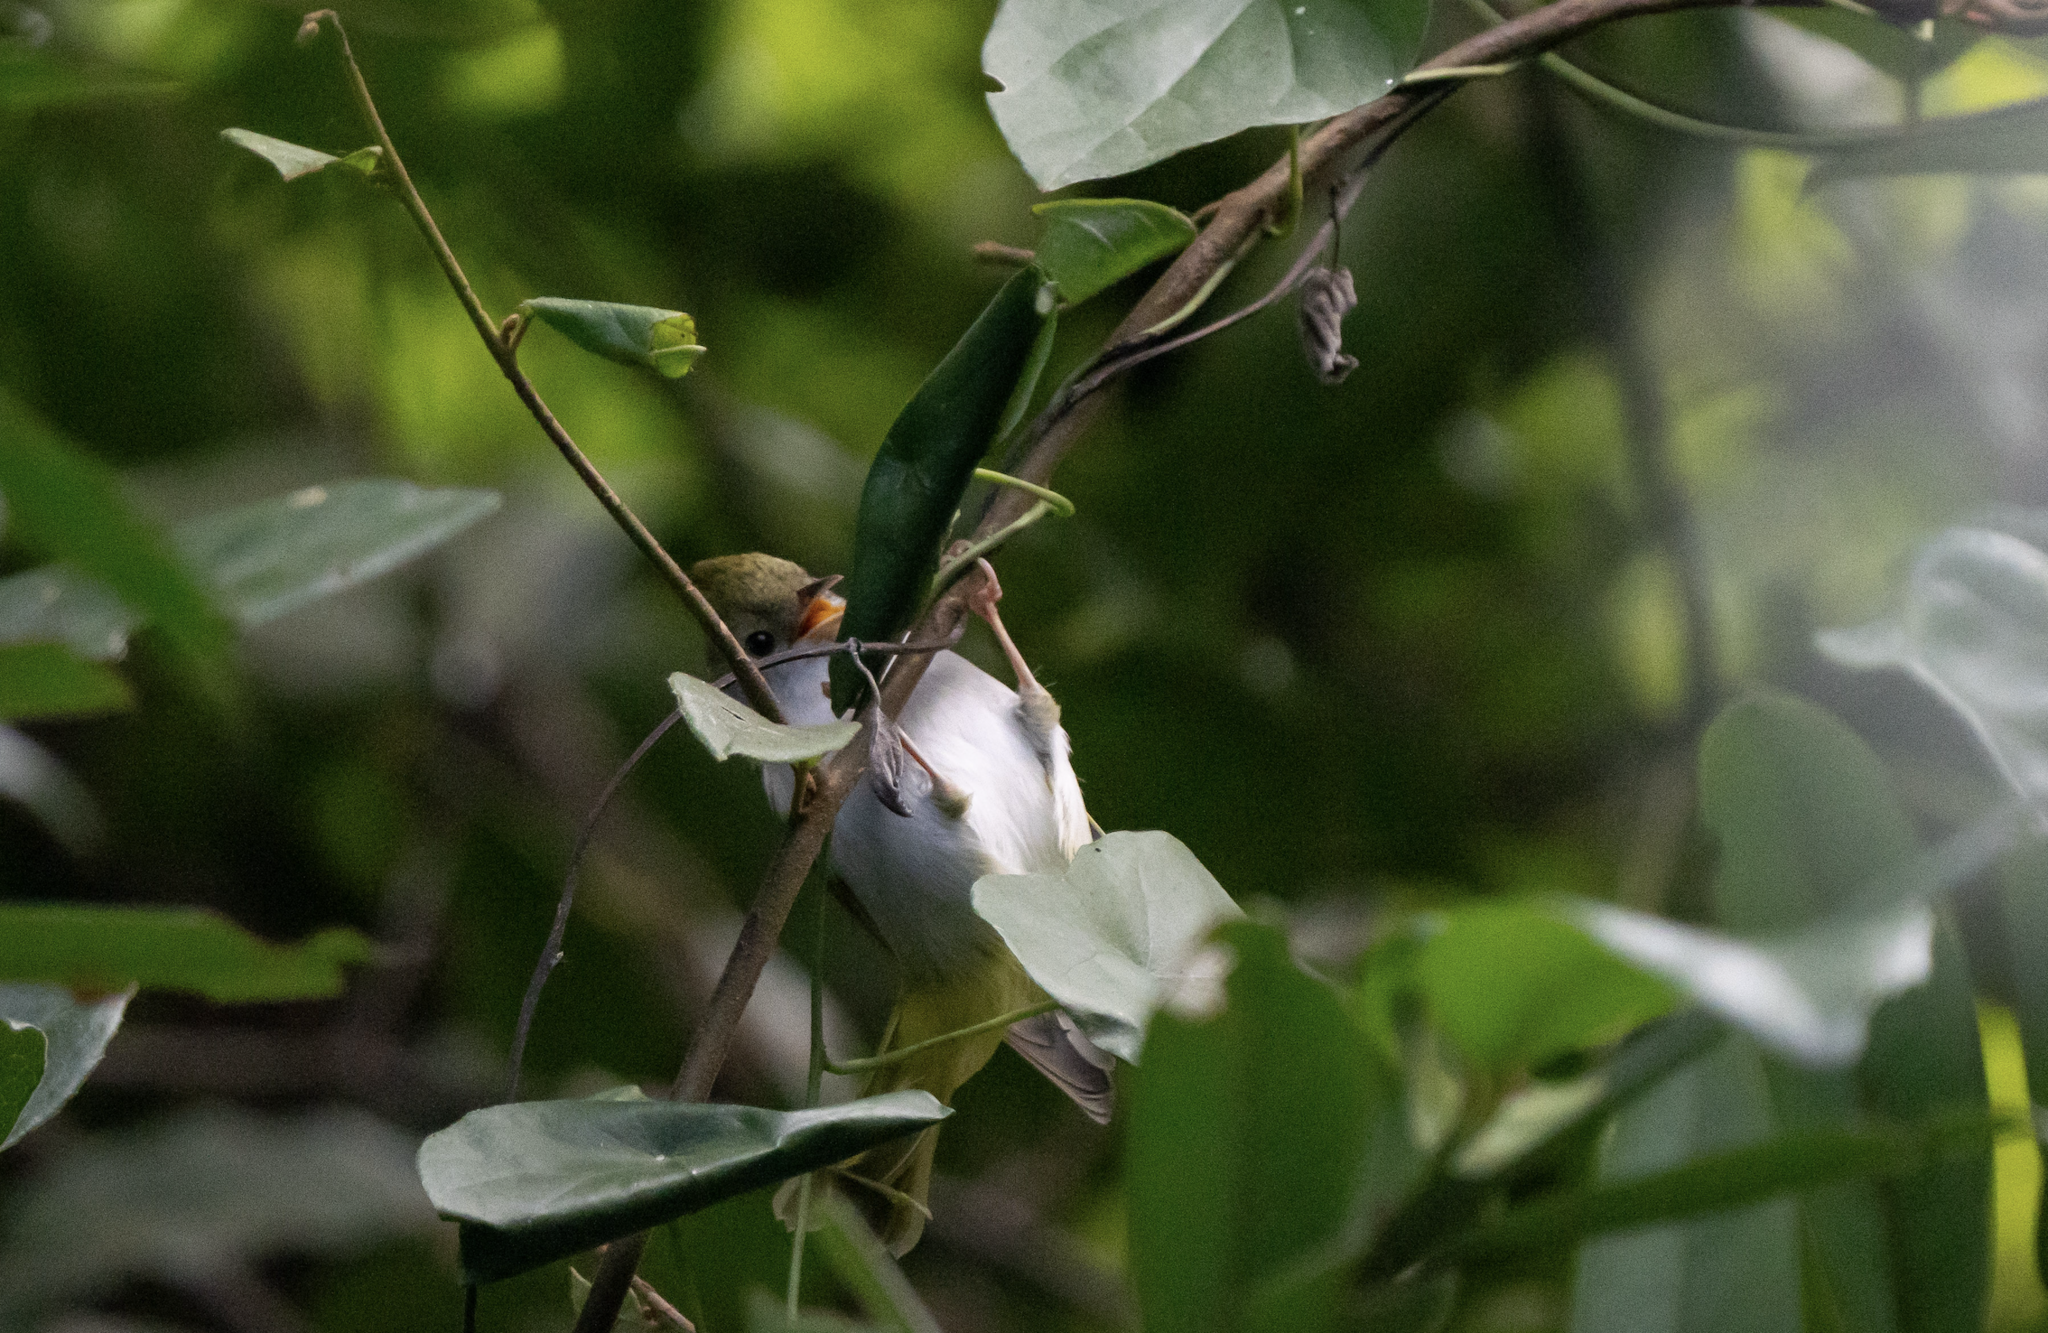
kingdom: Animalia
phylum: Chordata
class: Aves
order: Passeriformes
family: Vireonidae
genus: Erpornis
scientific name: Erpornis zantholeuca
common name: White-bellied erpornis
